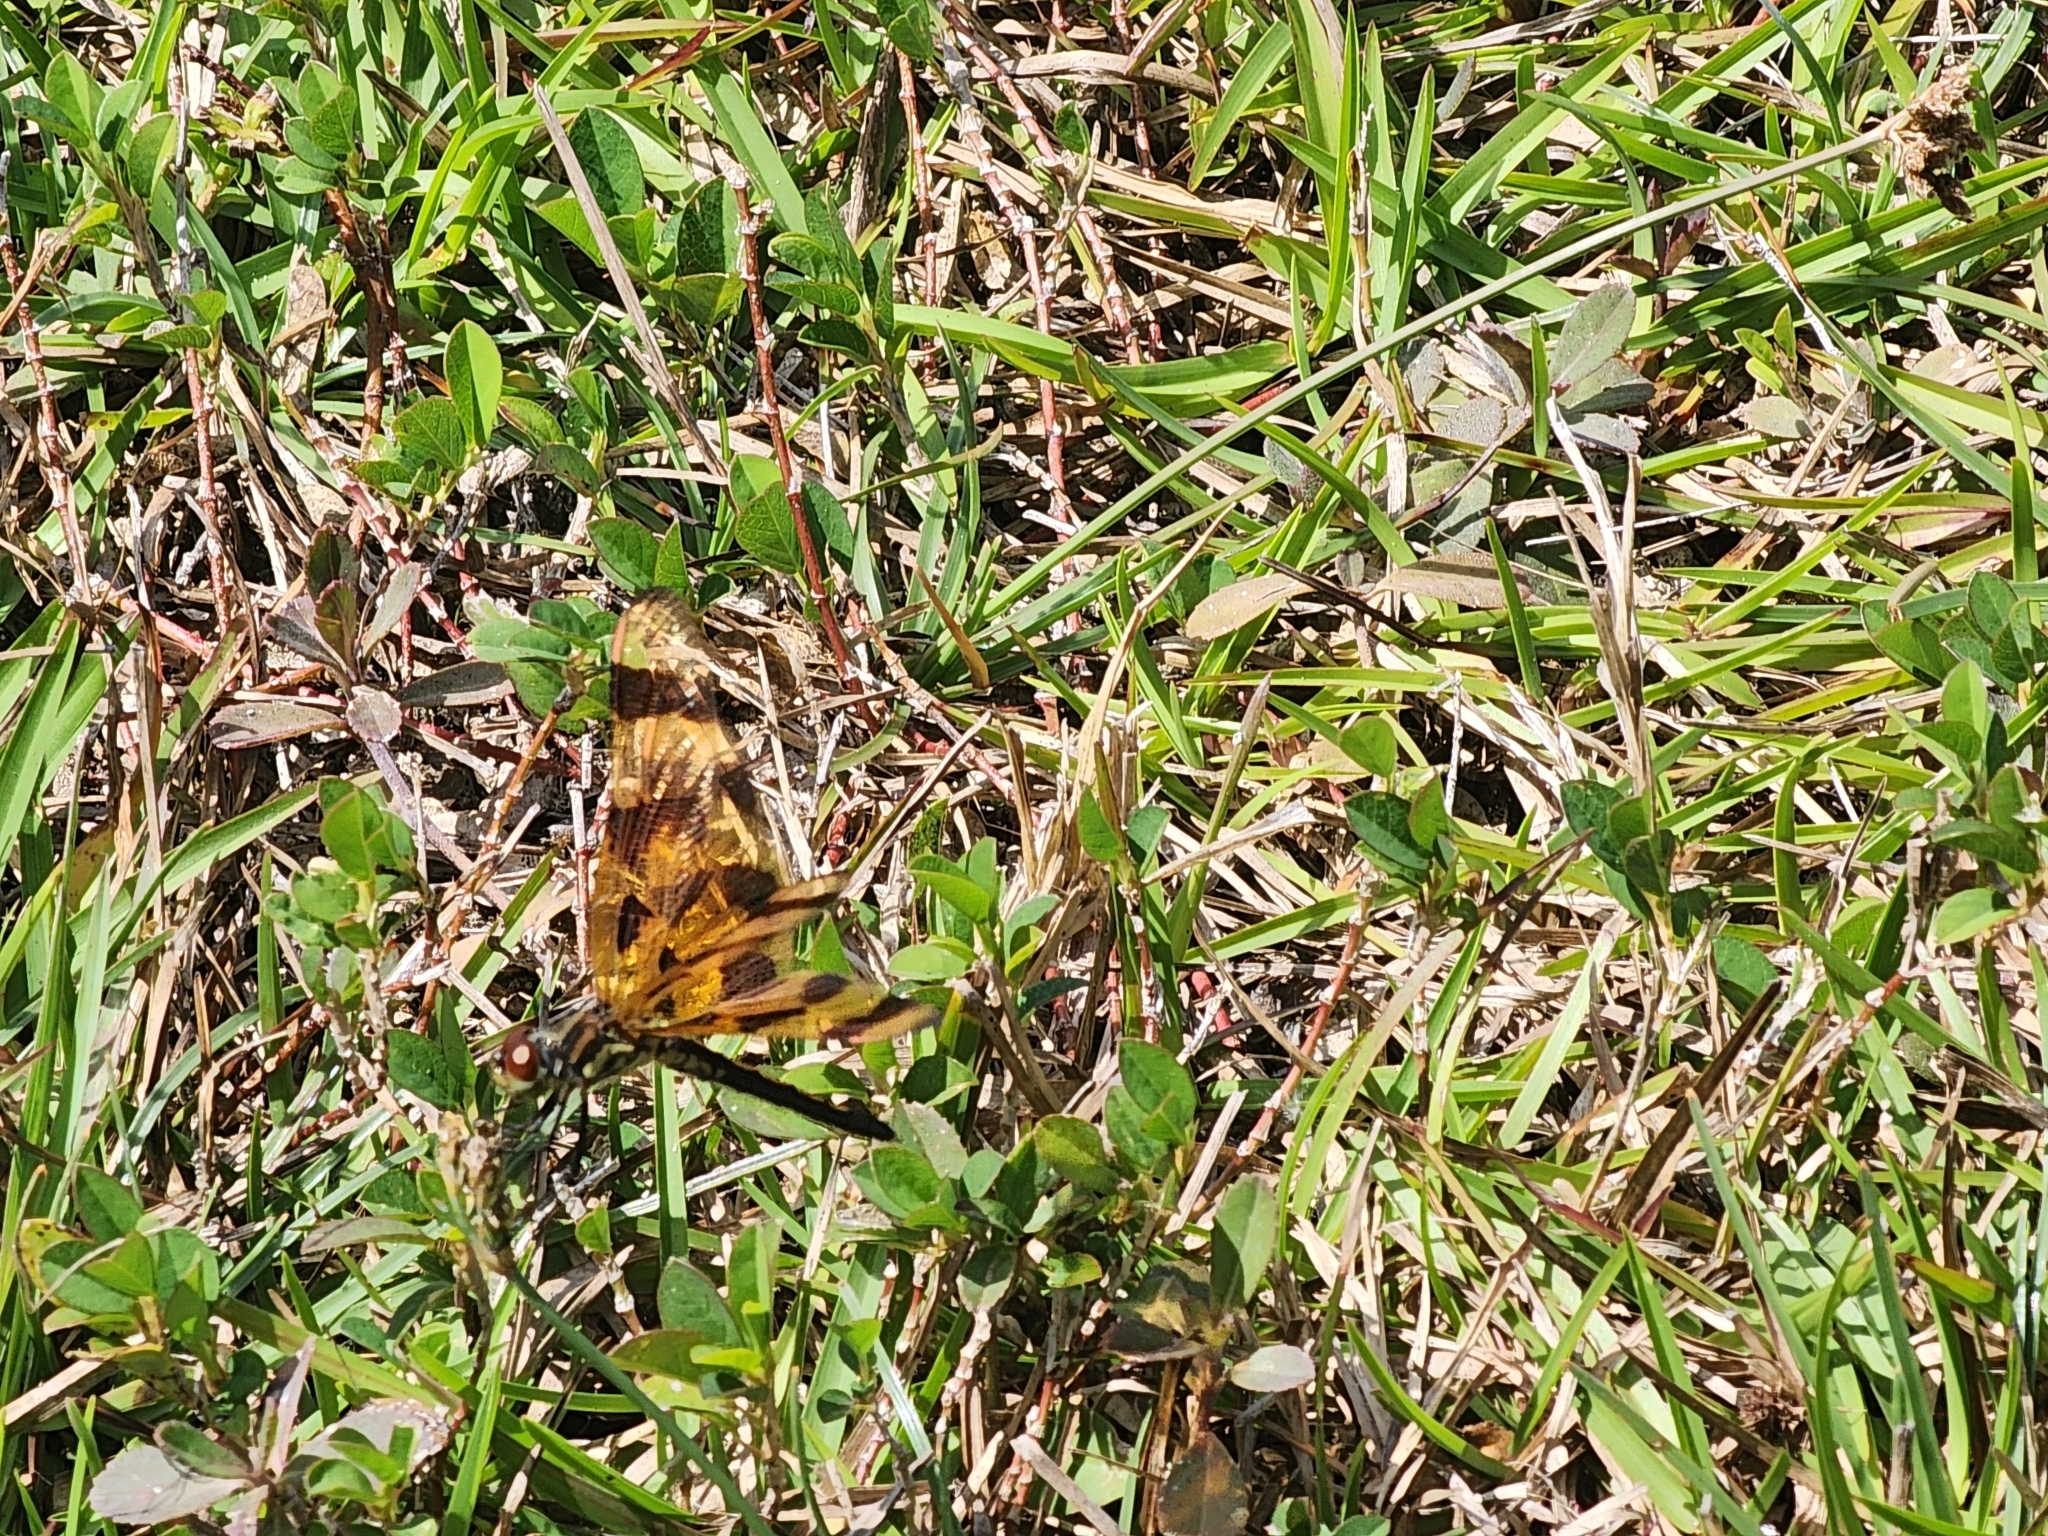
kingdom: Animalia
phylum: Arthropoda
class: Insecta
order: Odonata
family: Libellulidae
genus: Celithemis
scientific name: Celithemis eponina
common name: Halloween pennant
